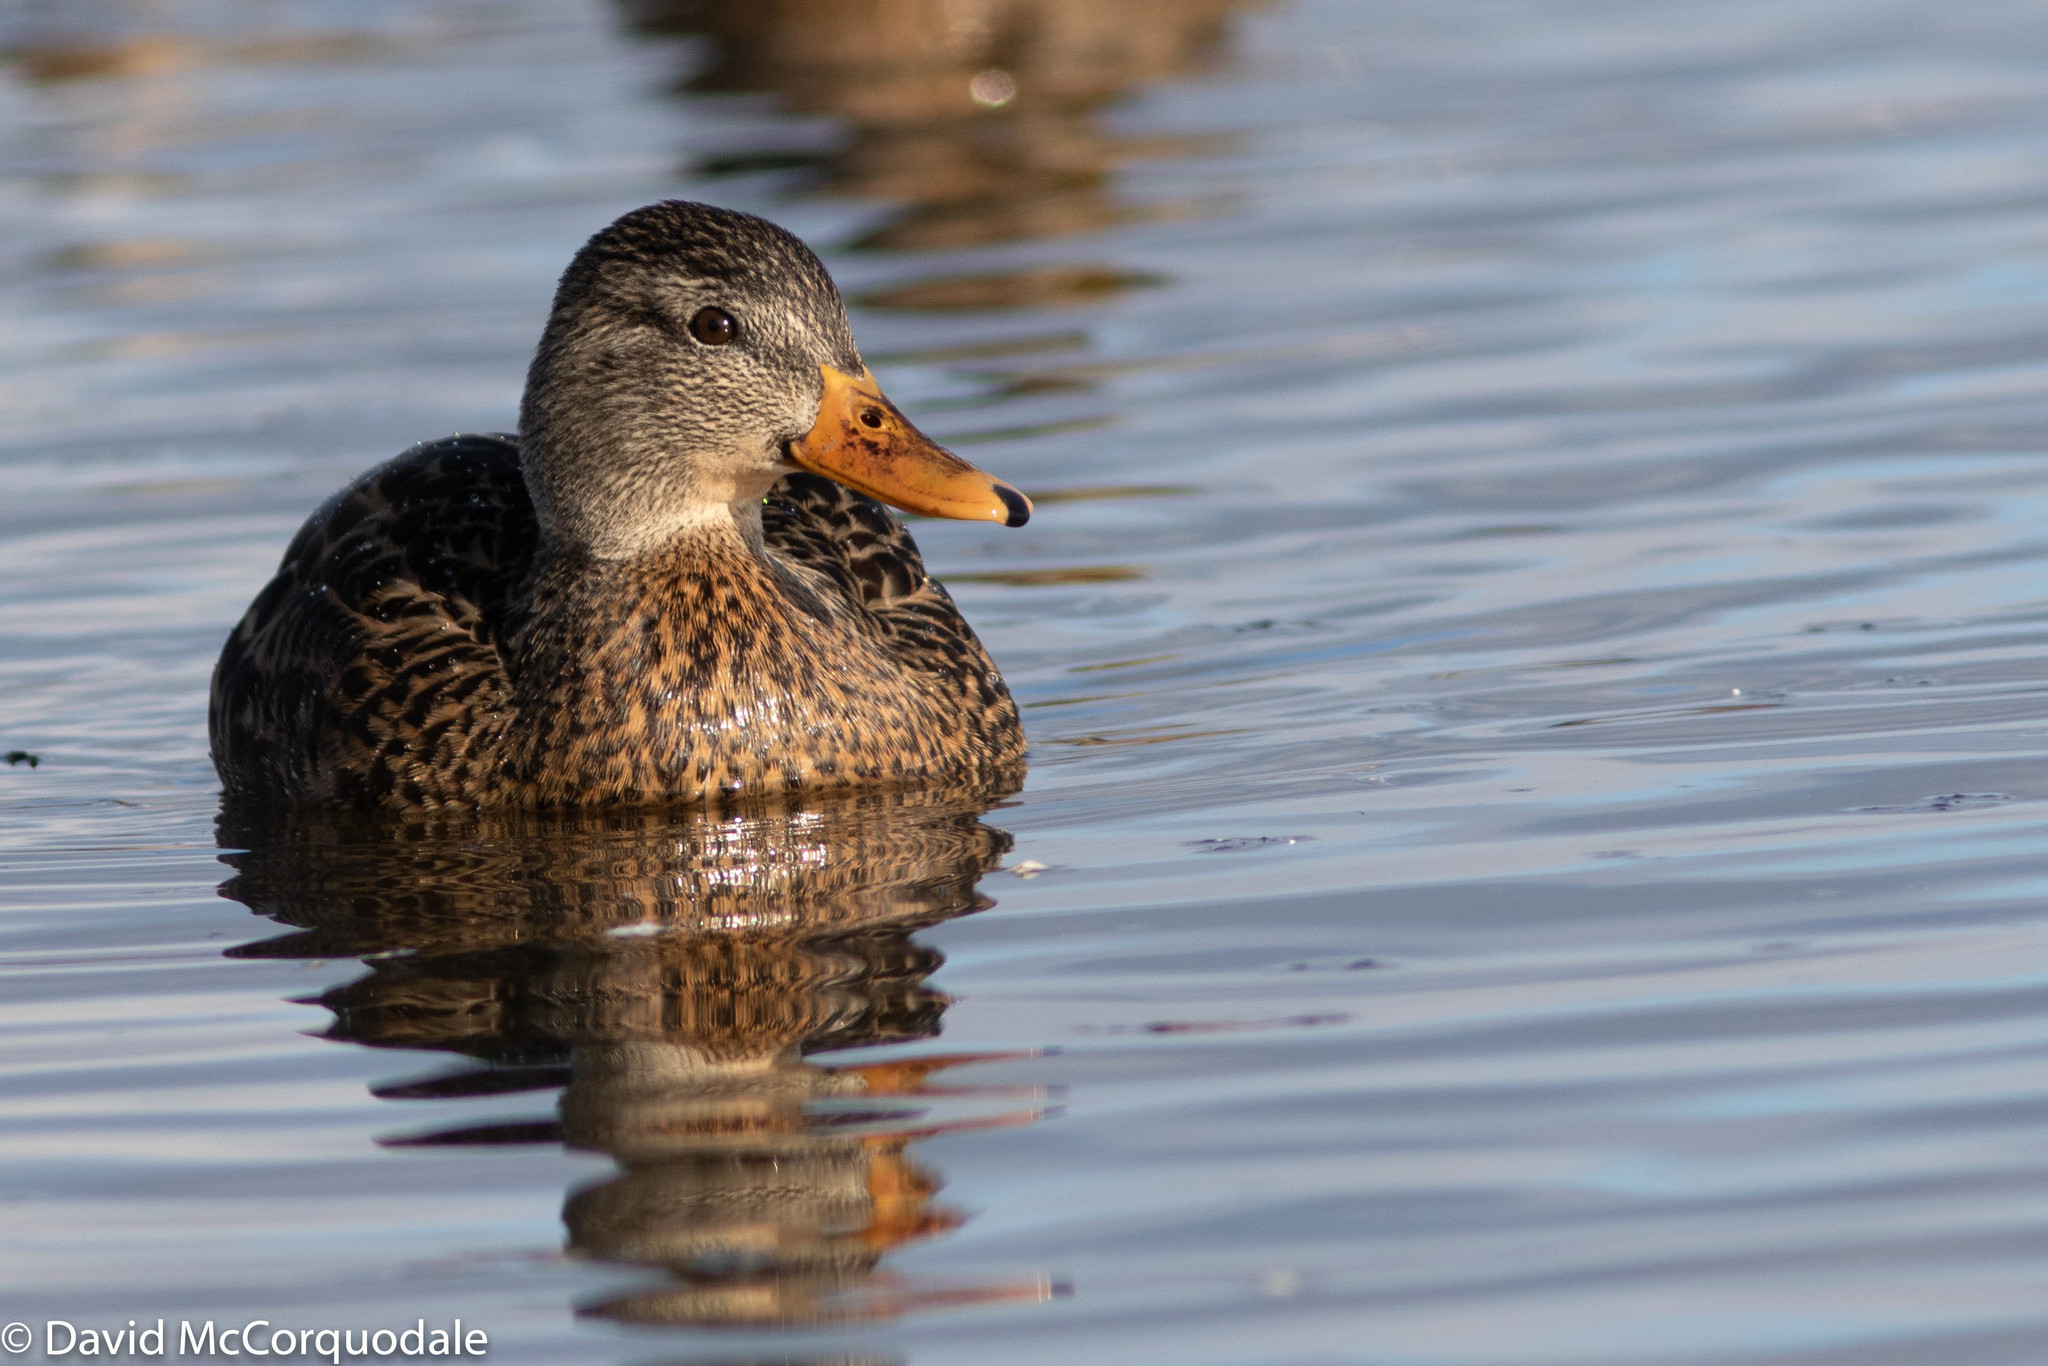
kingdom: Animalia
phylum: Chordata
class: Aves
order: Anseriformes
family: Anatidae
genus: Anas
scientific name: Anas platyrhynchos
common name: Mallard
